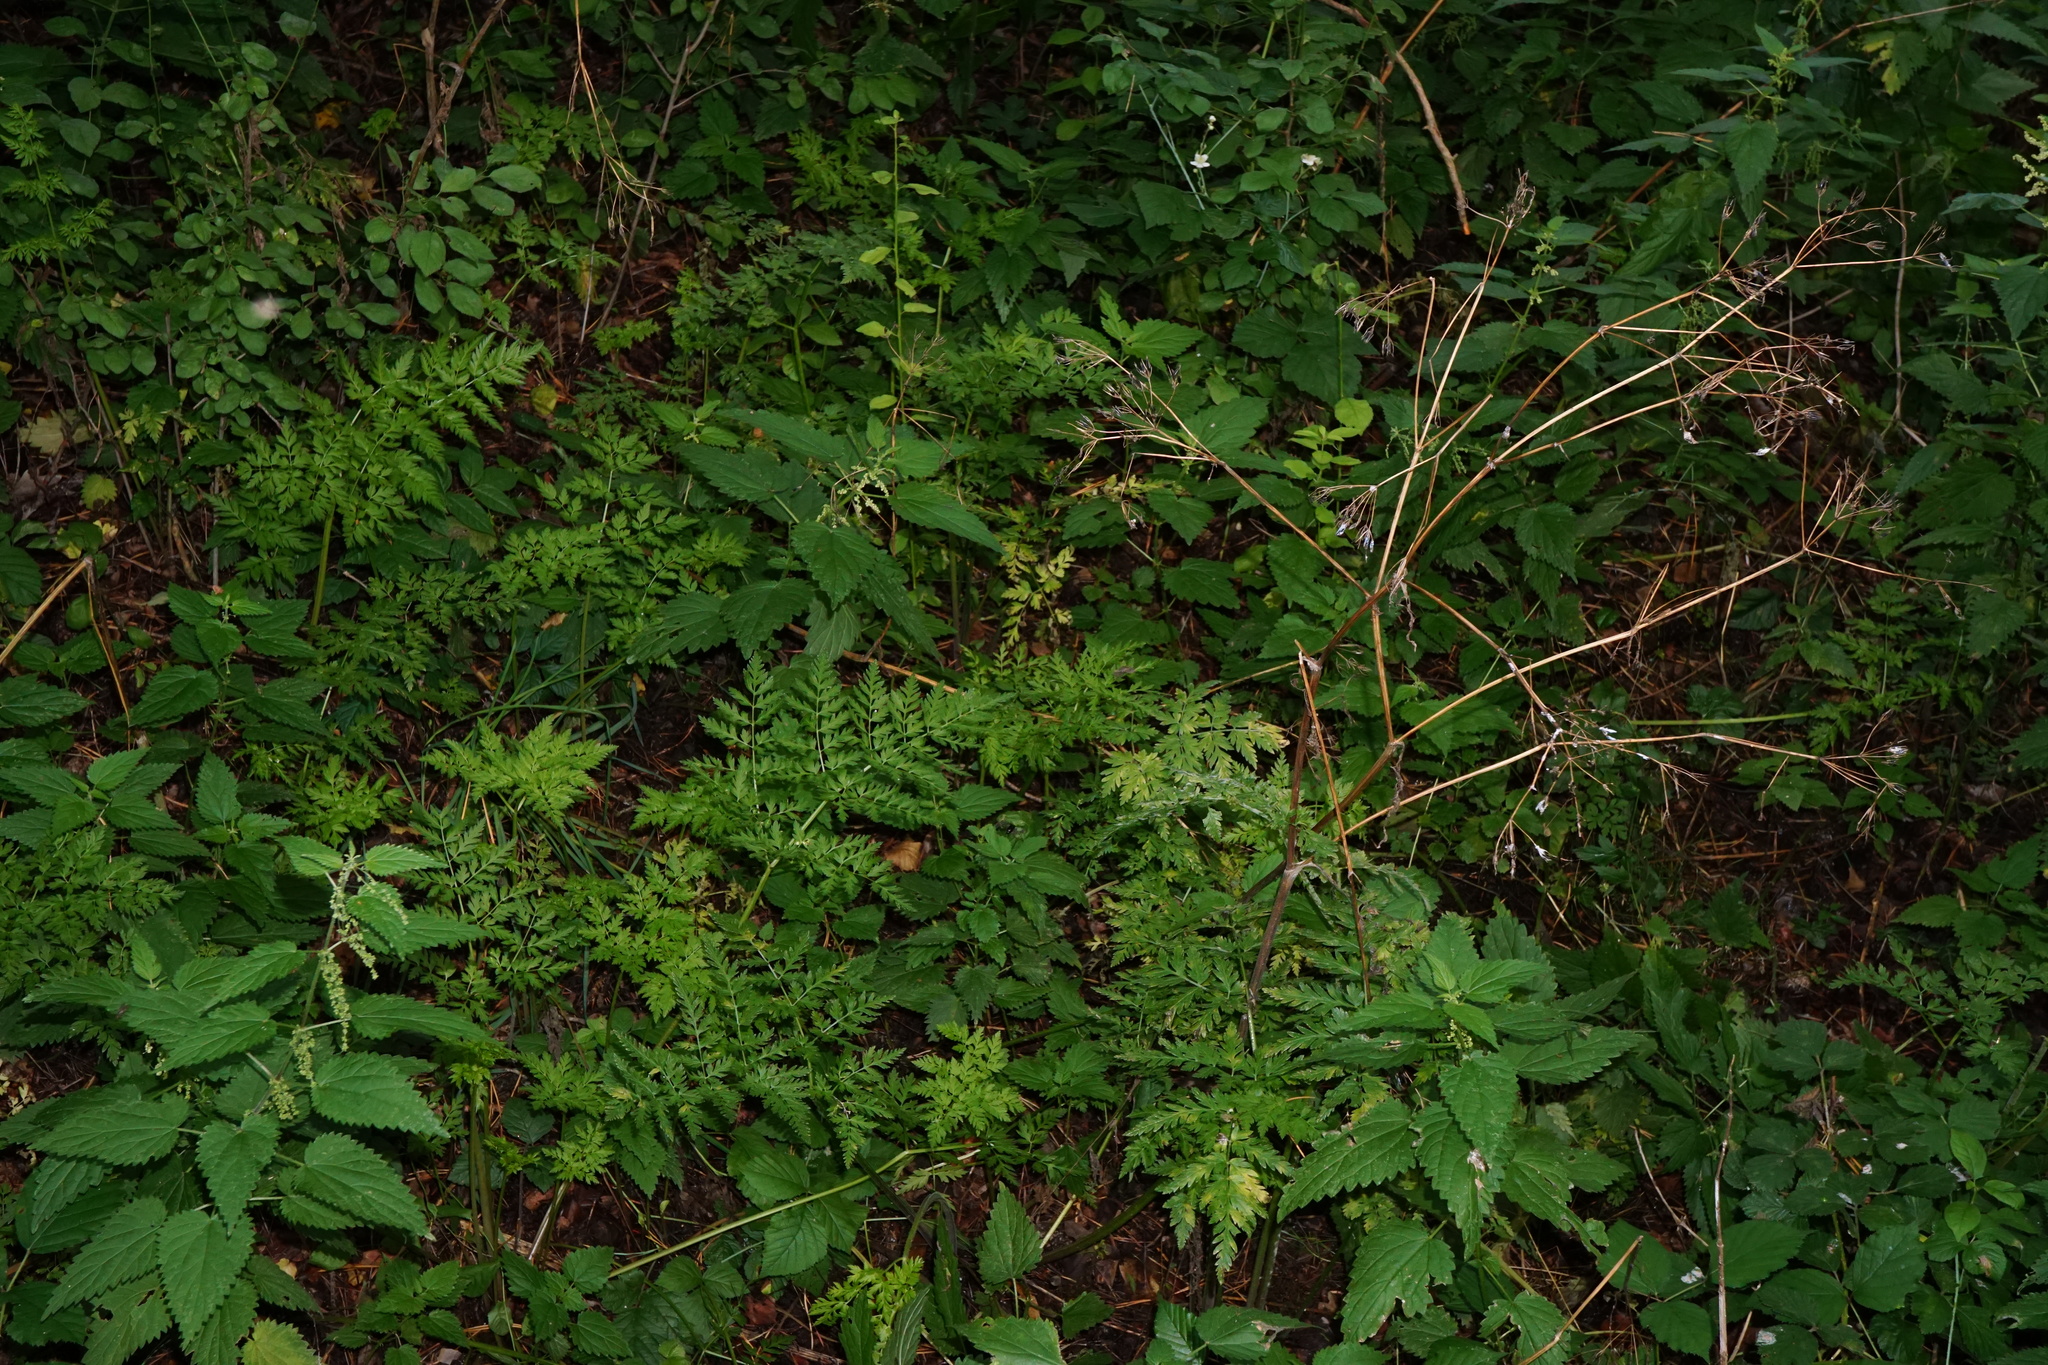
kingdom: Plantae
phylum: Tracheophyta
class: Magnoliopsida
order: Apiales
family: Apiaceae
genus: Anthriscus
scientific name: Anthriscus sylvestris
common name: Cow parsley
